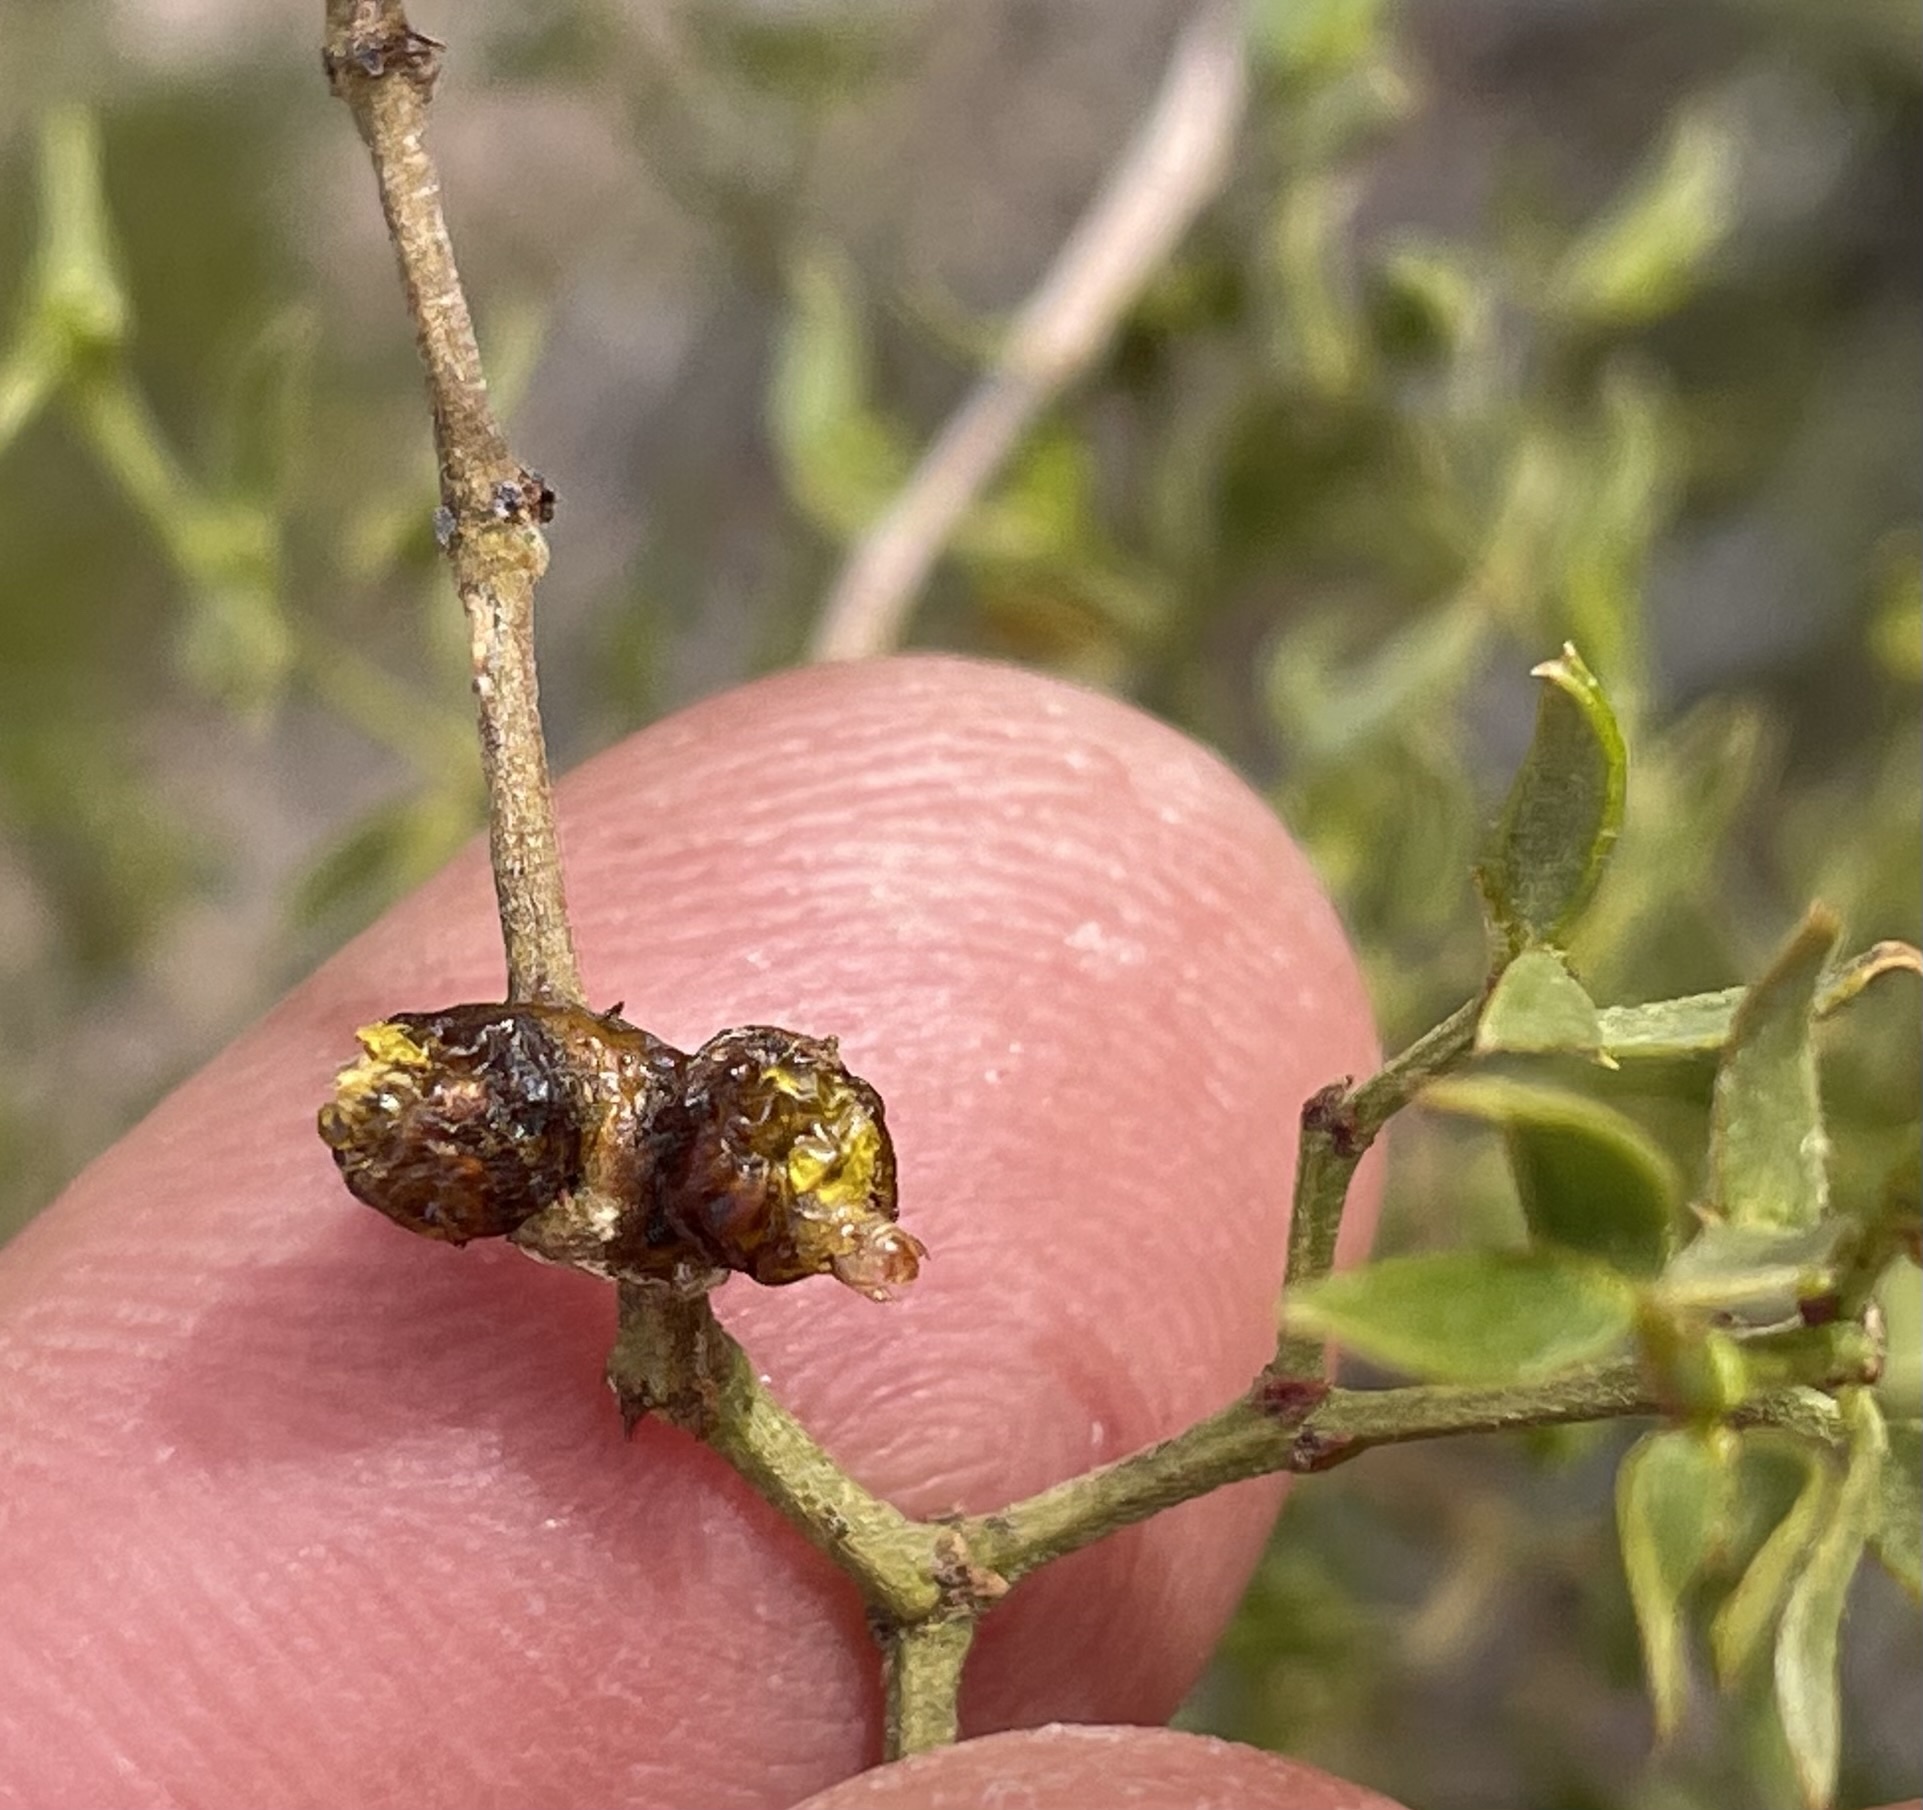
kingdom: Animalia
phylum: Arthropoda
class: Insecta
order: Diptera
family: Cecidomyiidae
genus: Asphondylia
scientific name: Asphondylia resinosa
